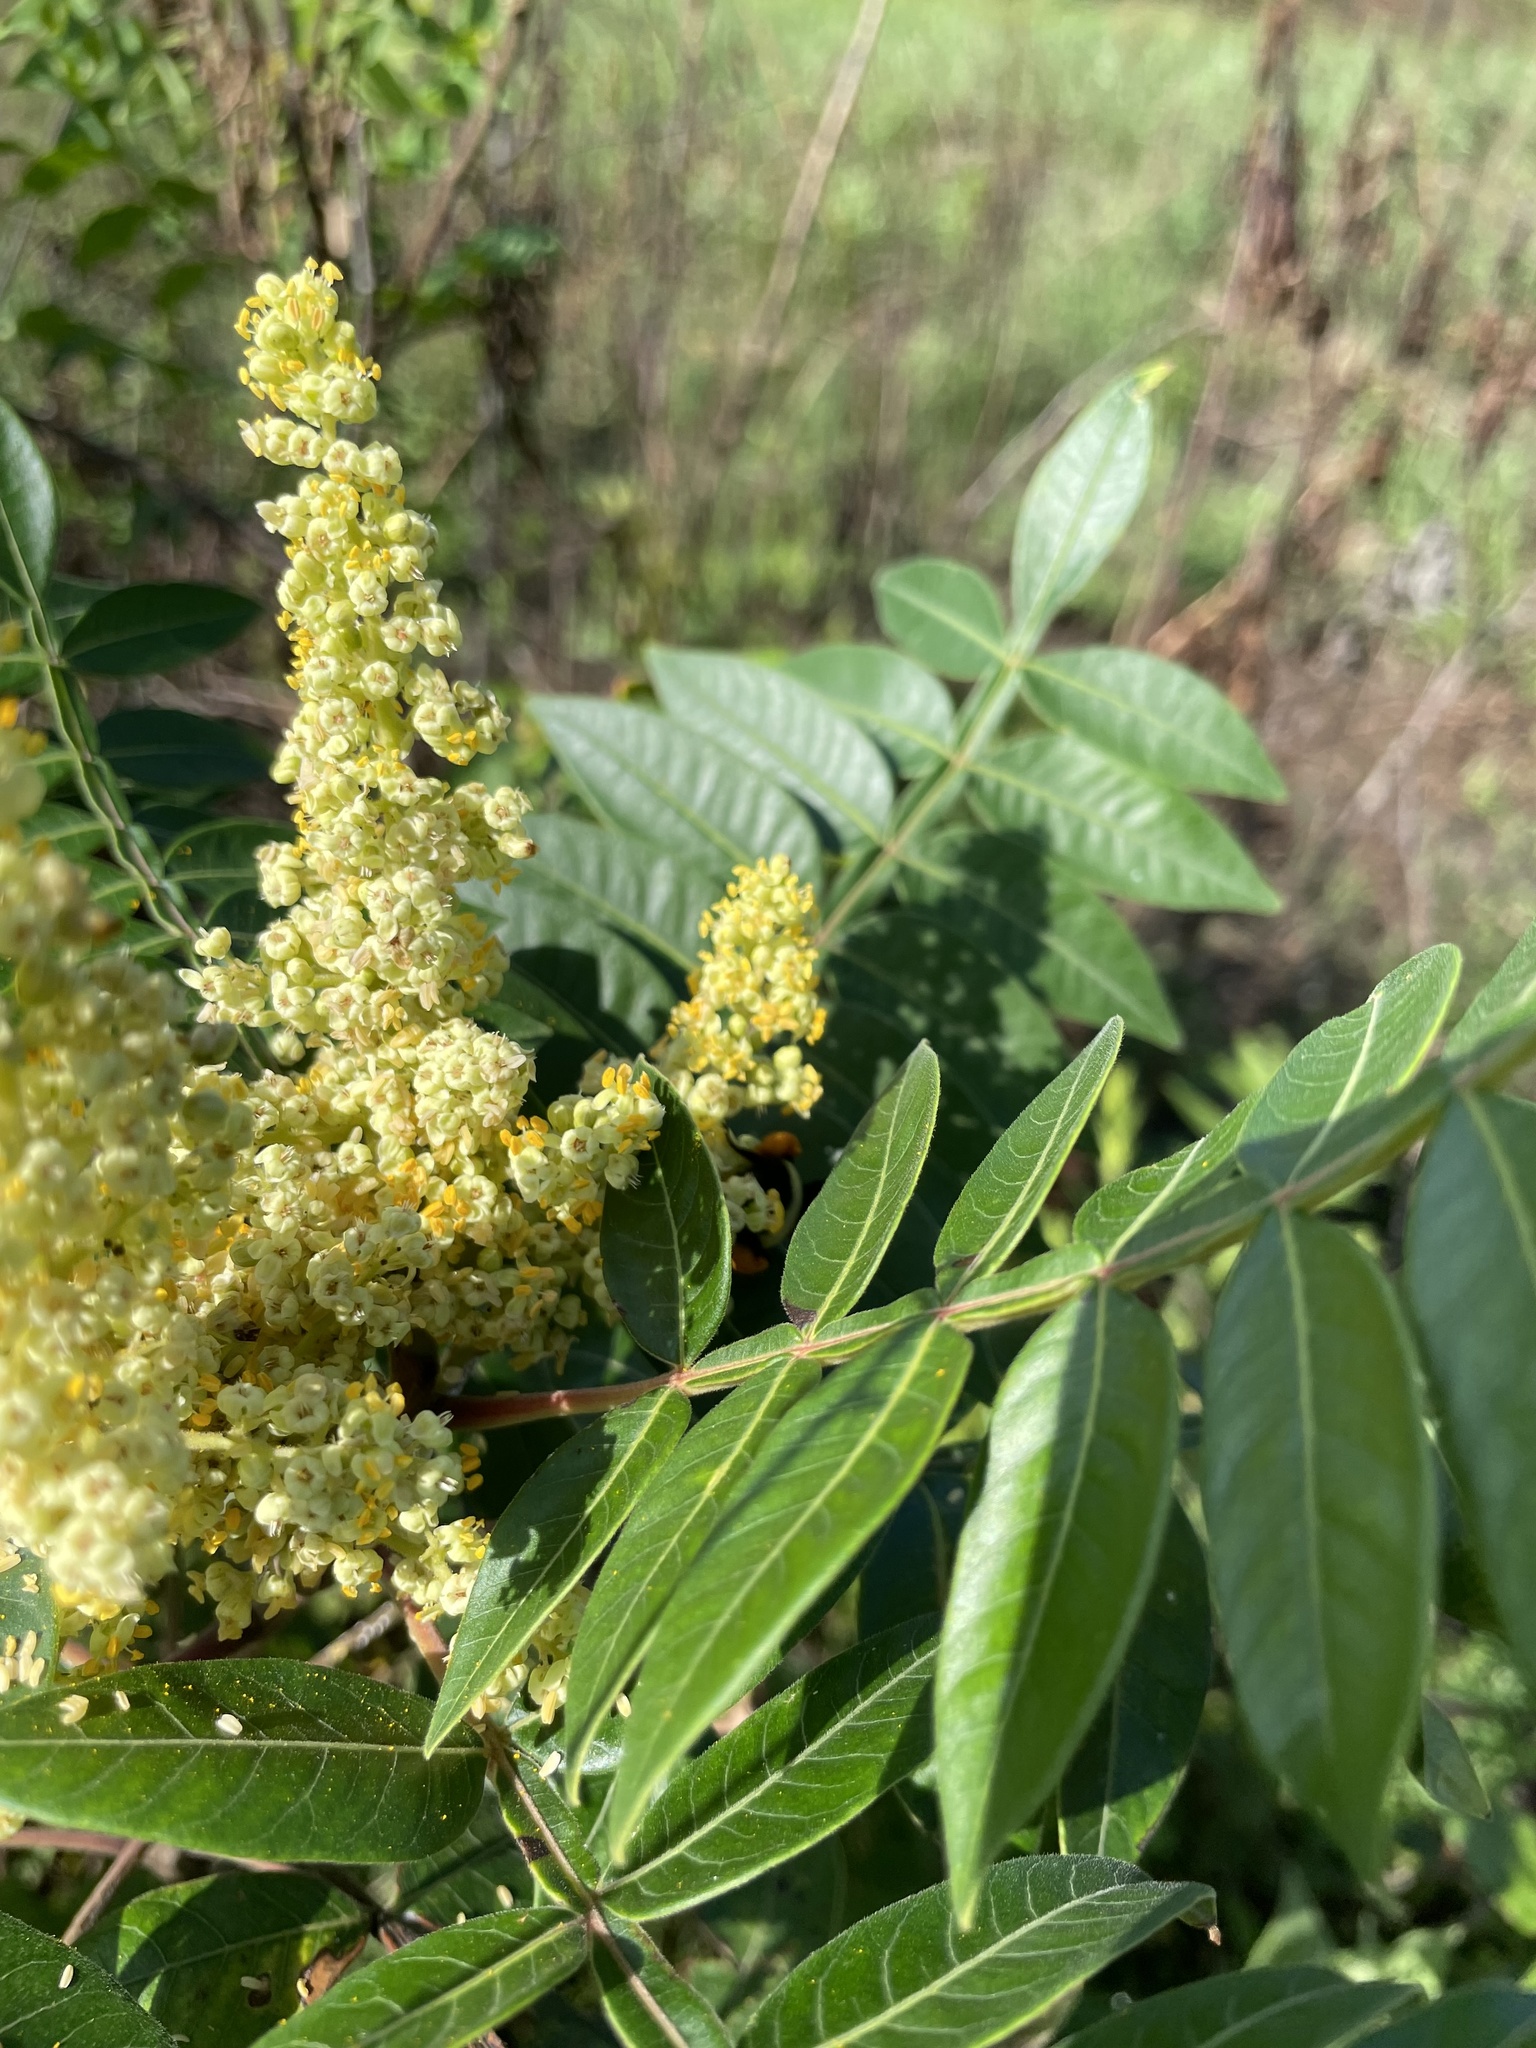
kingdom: Animalia
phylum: Arthropoda
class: Insecta
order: Hymenoptera
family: Apidae
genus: Bombus
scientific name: Bombus pensylvanicus
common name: Bumble bee
